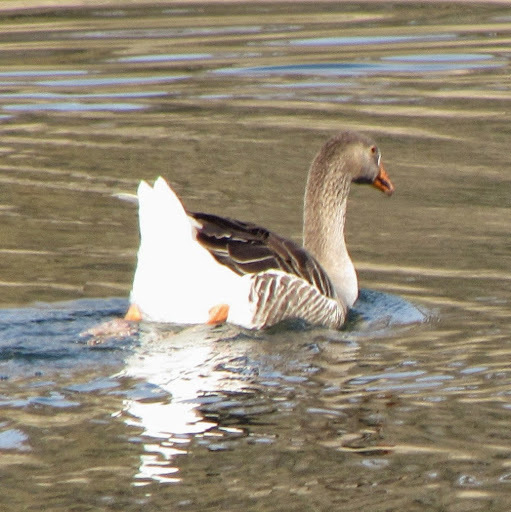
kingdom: Animalia
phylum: Chordata
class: Aves
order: Anseriformes
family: Anatidae
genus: Anser
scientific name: Anser
